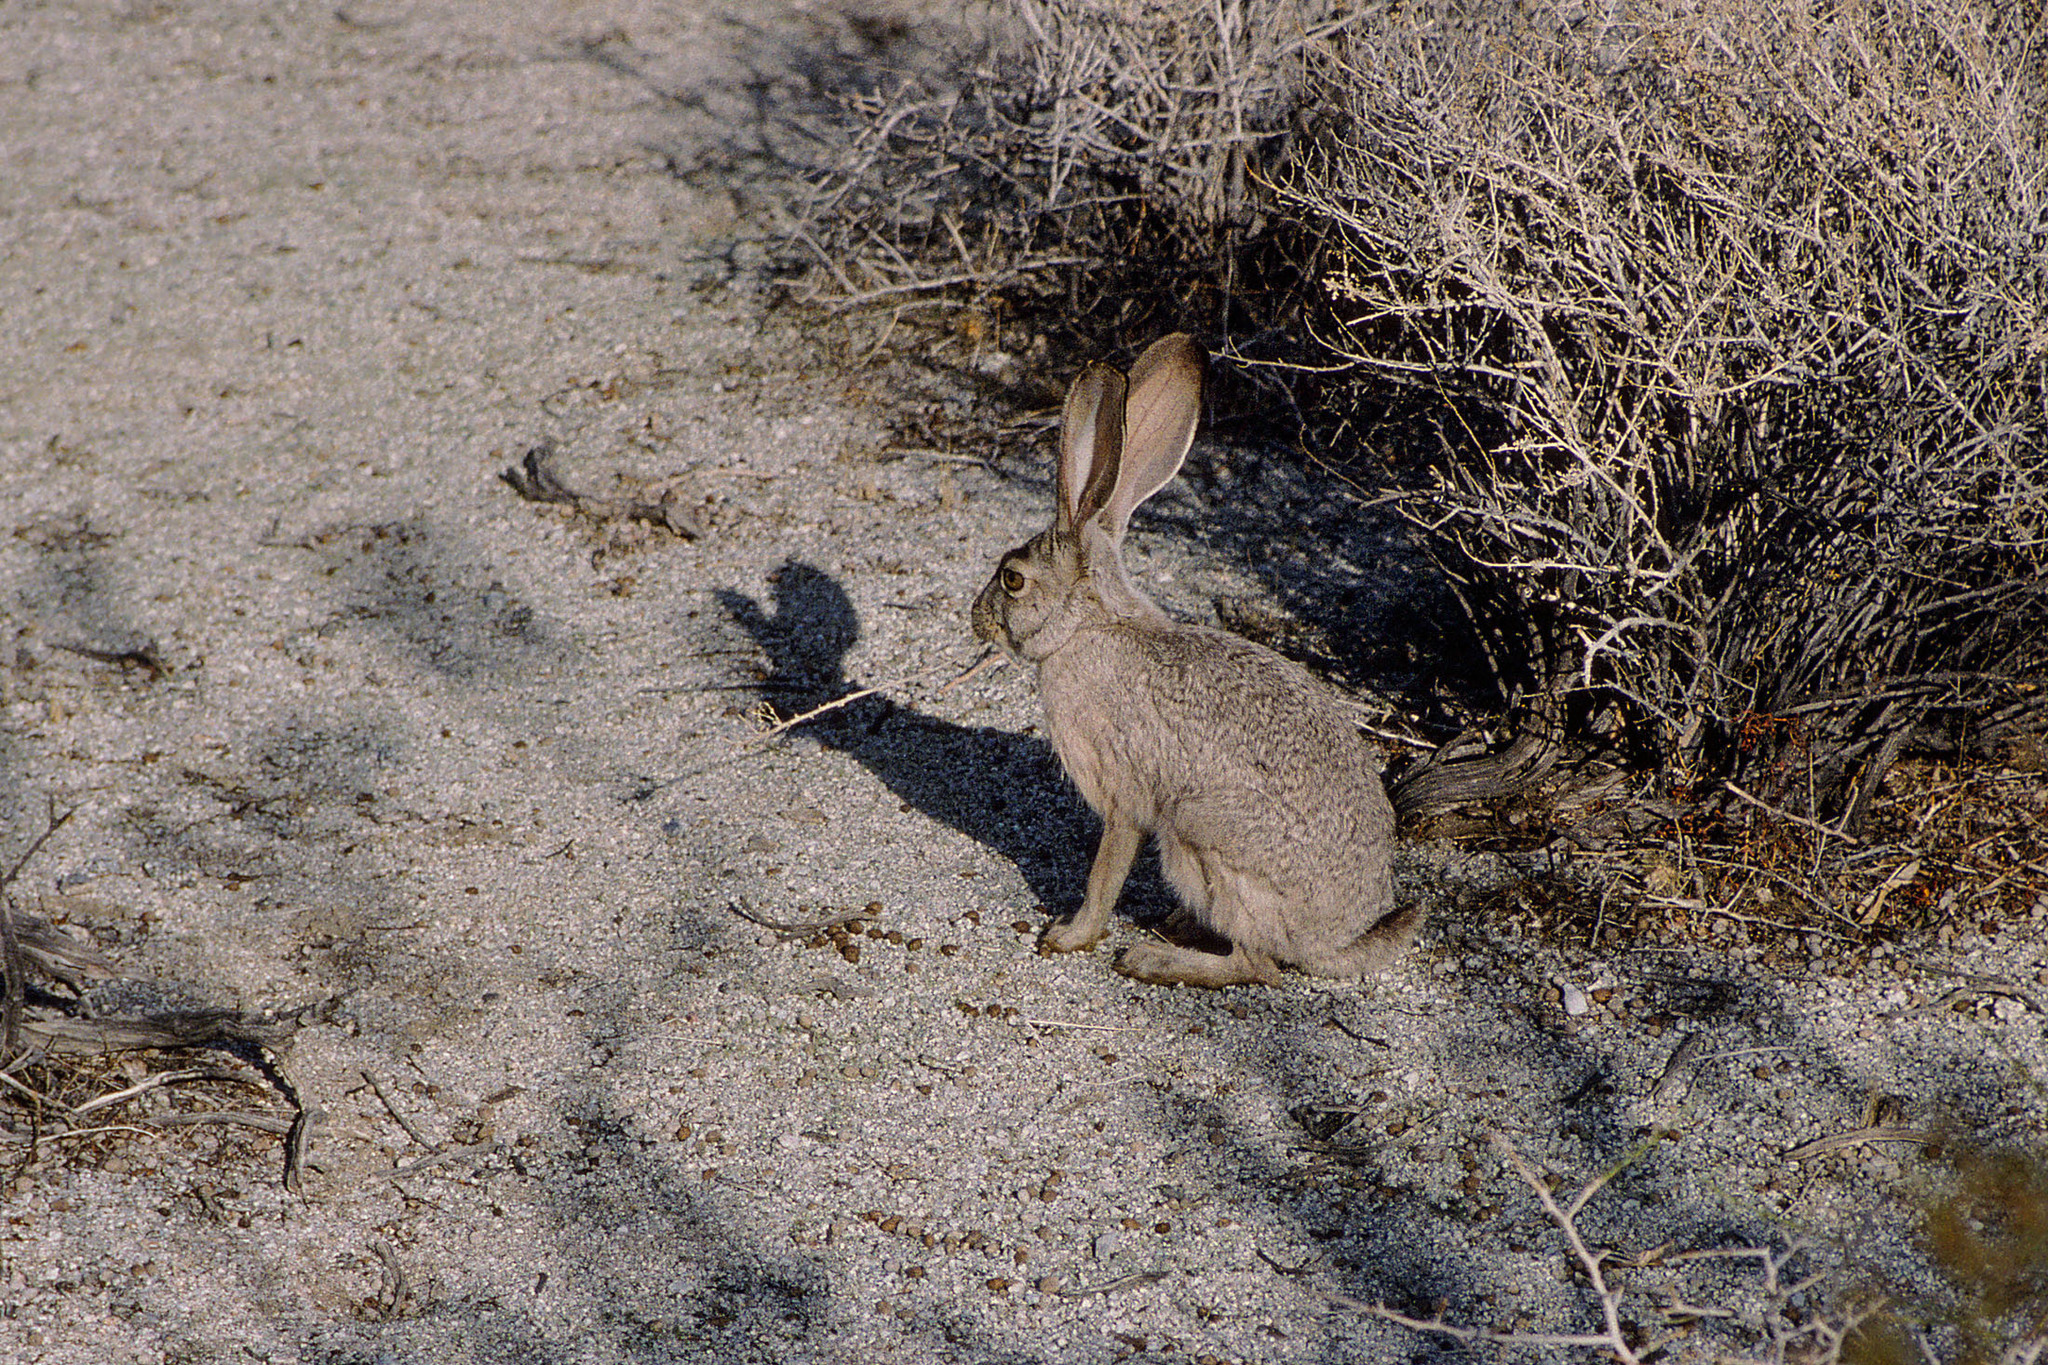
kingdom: Animalia
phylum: Chordata
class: Mammalia
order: Lagomorpha
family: Leporidae
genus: Lepus
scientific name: Lepus californicus
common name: Black-tailed jackrabbit
